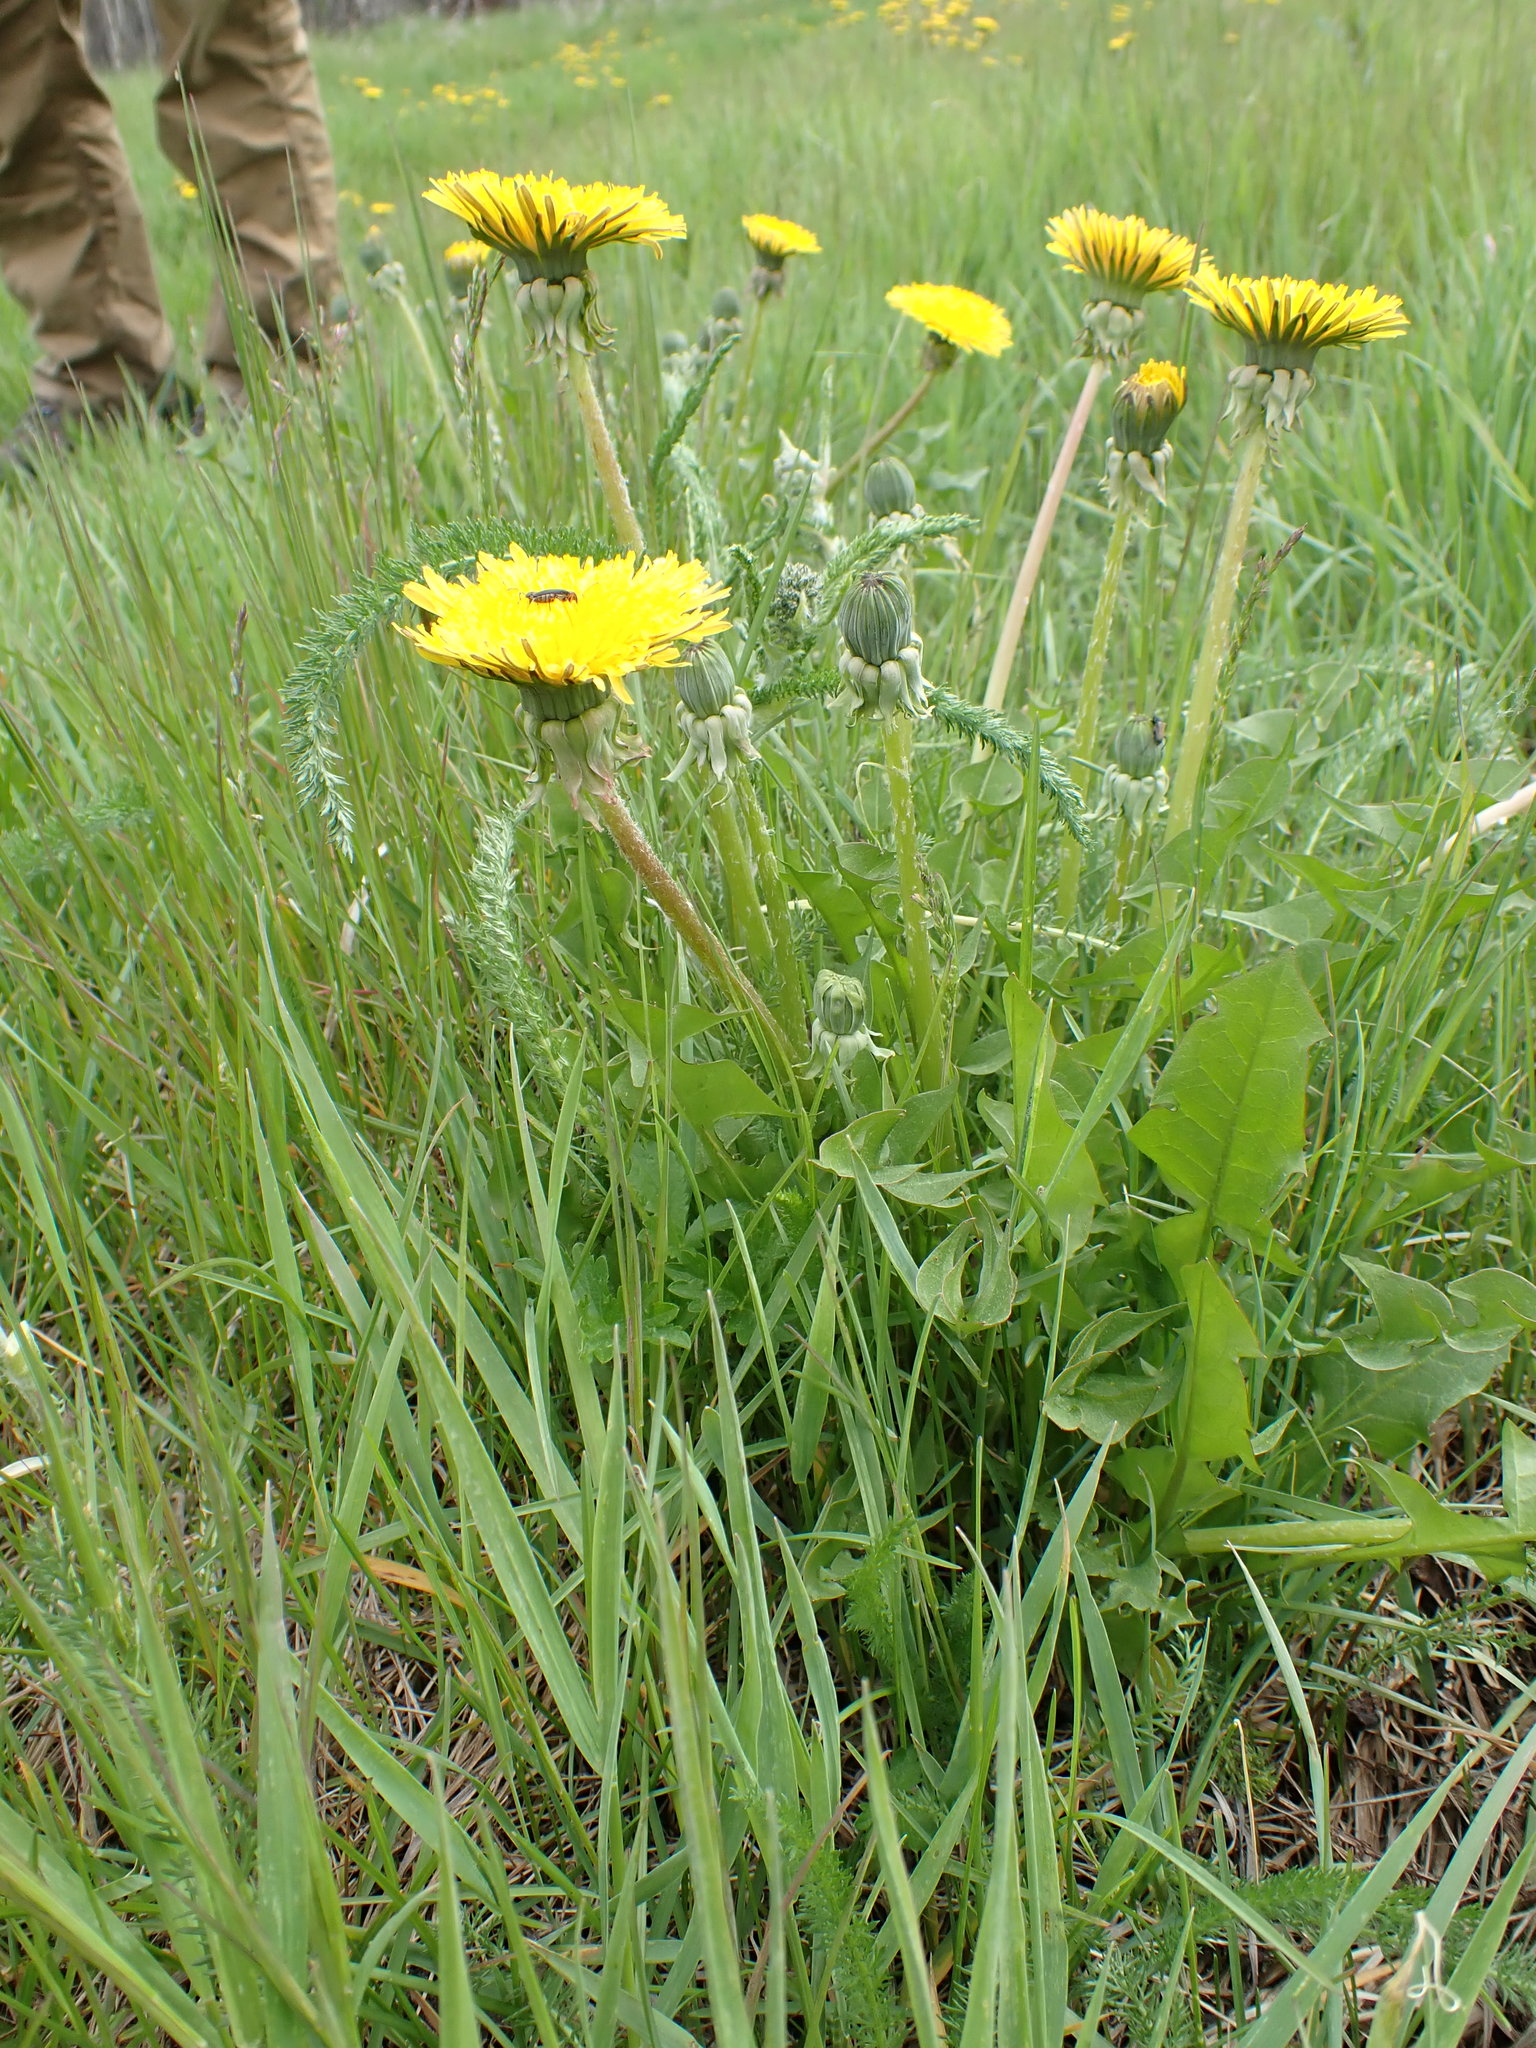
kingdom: Plantae
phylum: Tracheophyta
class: Magnoliopsida
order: Asterales
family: Asteraceae
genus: Taraxacum
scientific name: Taraxacum officinale
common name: Common dandelion
